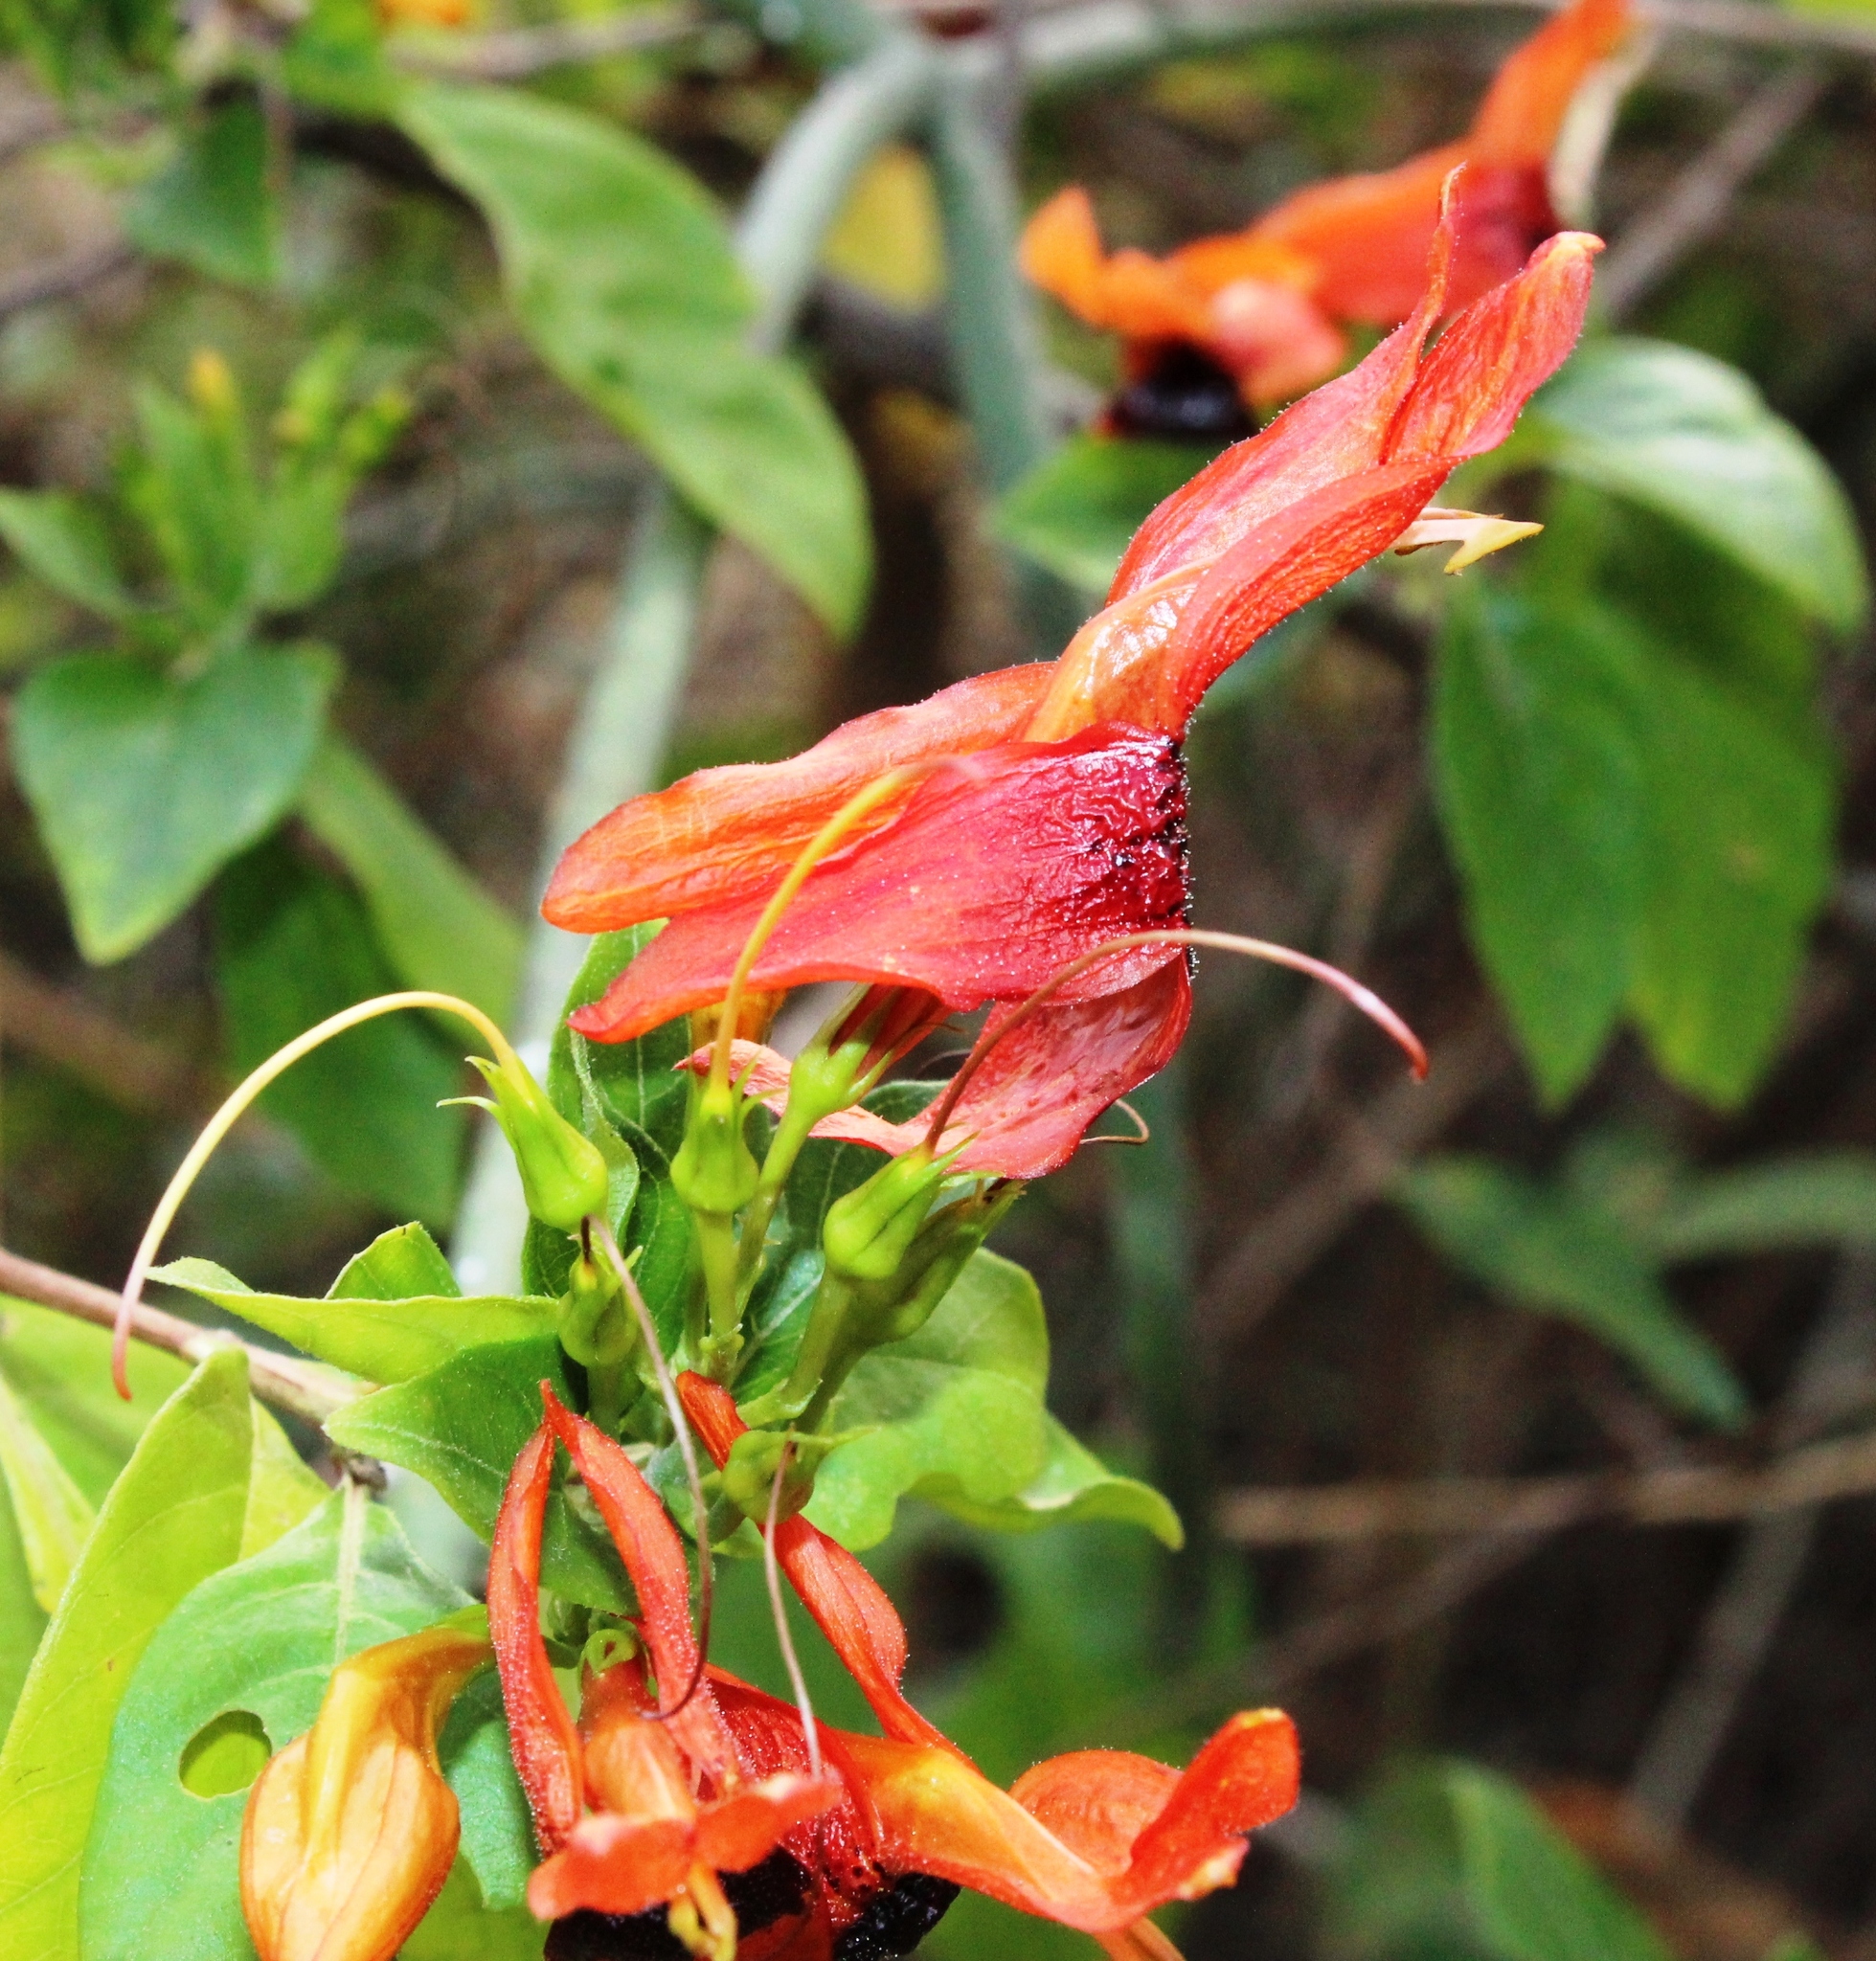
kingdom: Plantae
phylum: Tracheophyta
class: Magnoliopsida
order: Lamiales
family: Acanthaceae
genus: Ruttya
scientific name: Ruttya fruticosa
